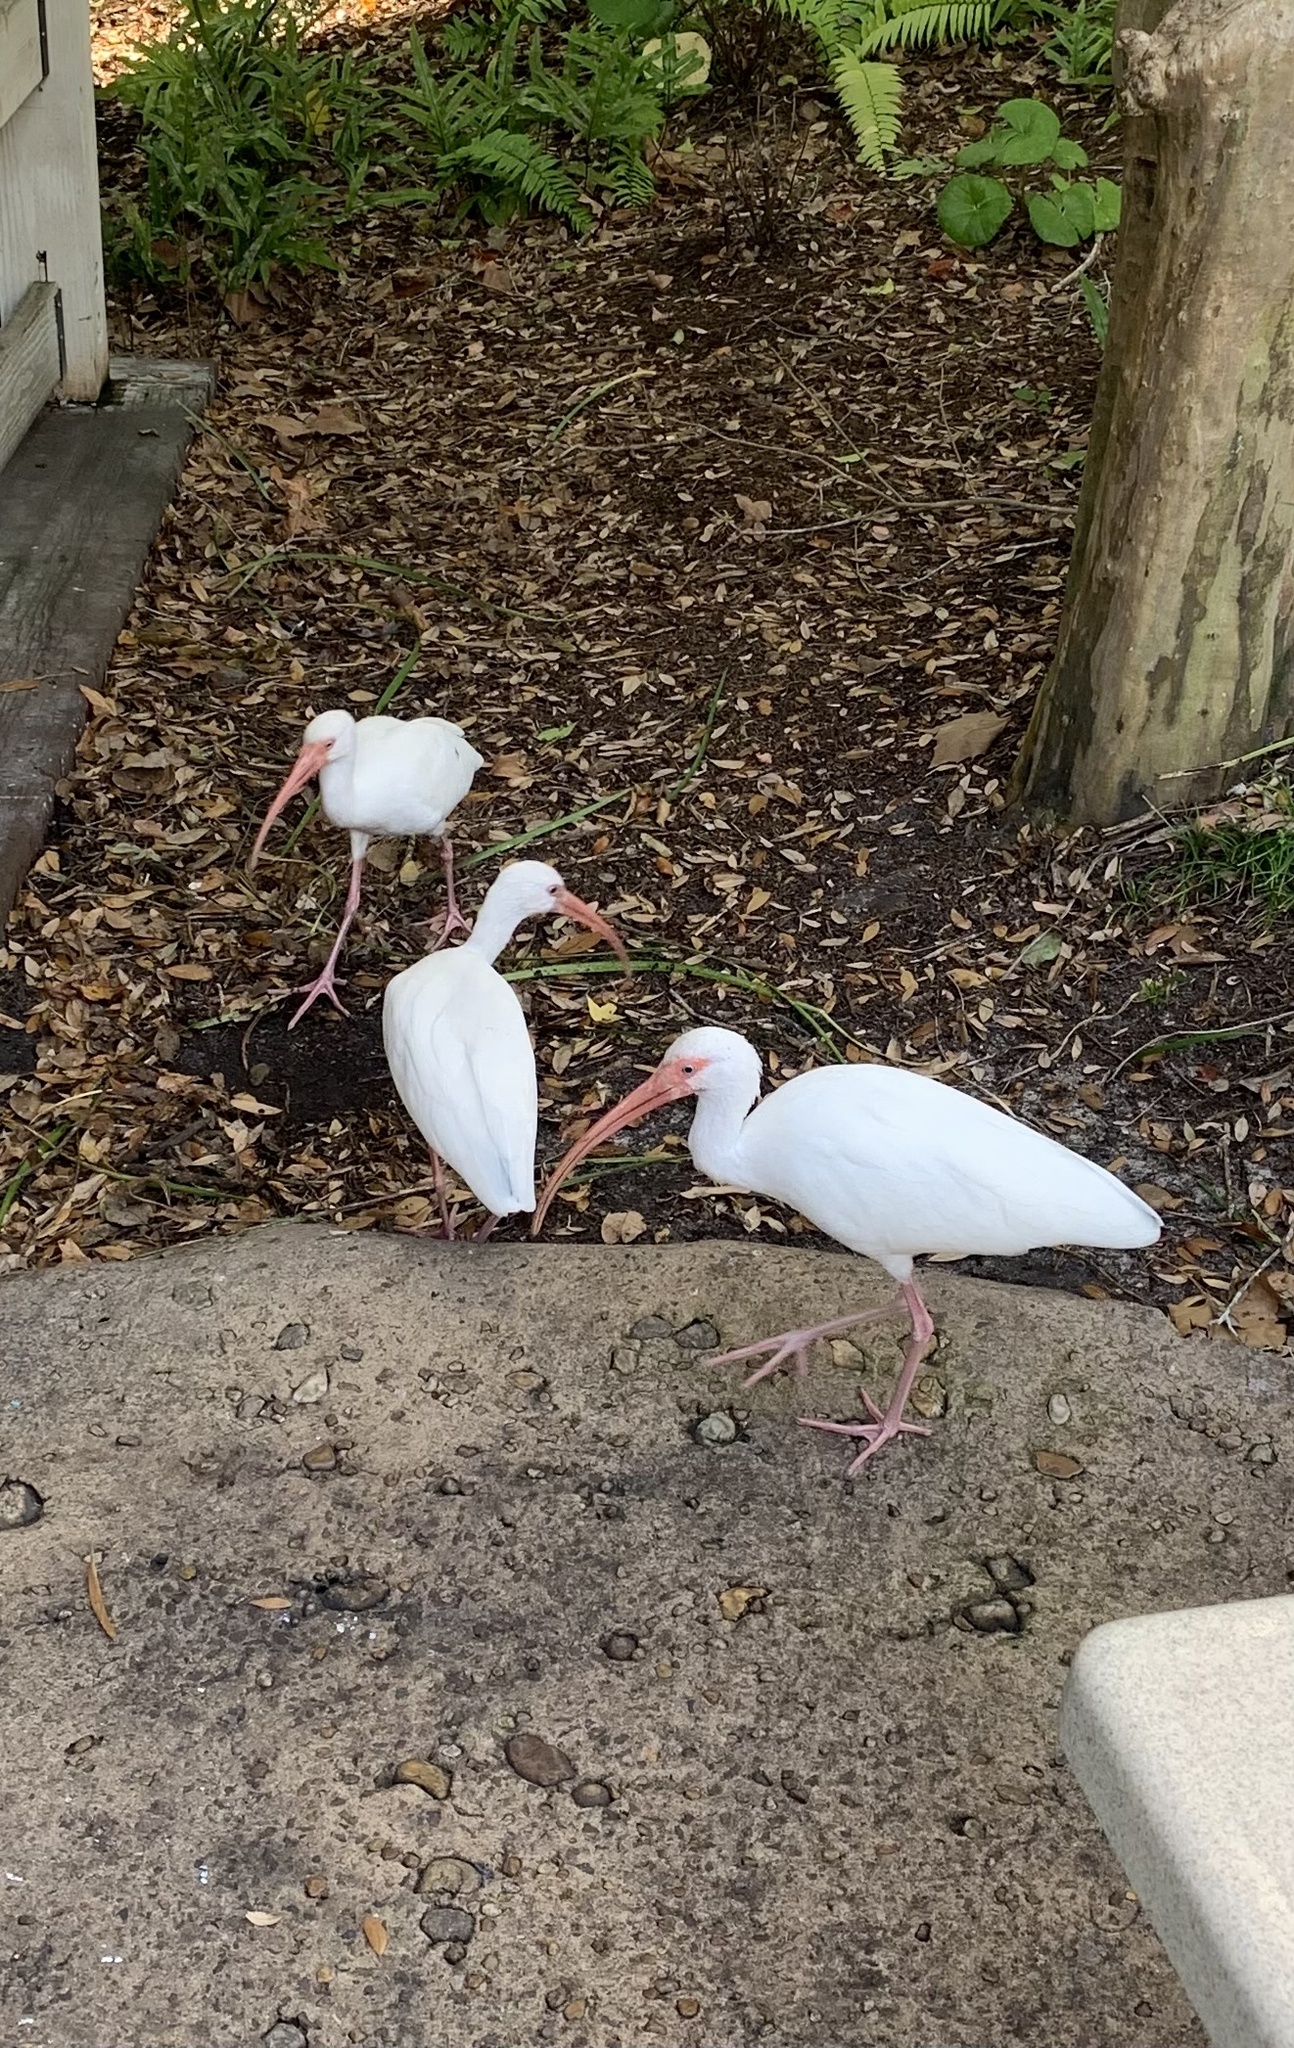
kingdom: Animalia
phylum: Chordata
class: Aves
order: Pelecaniformes
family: Threskiornithidae
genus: Eudocimus
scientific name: Eudocimus albus
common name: White ibis
